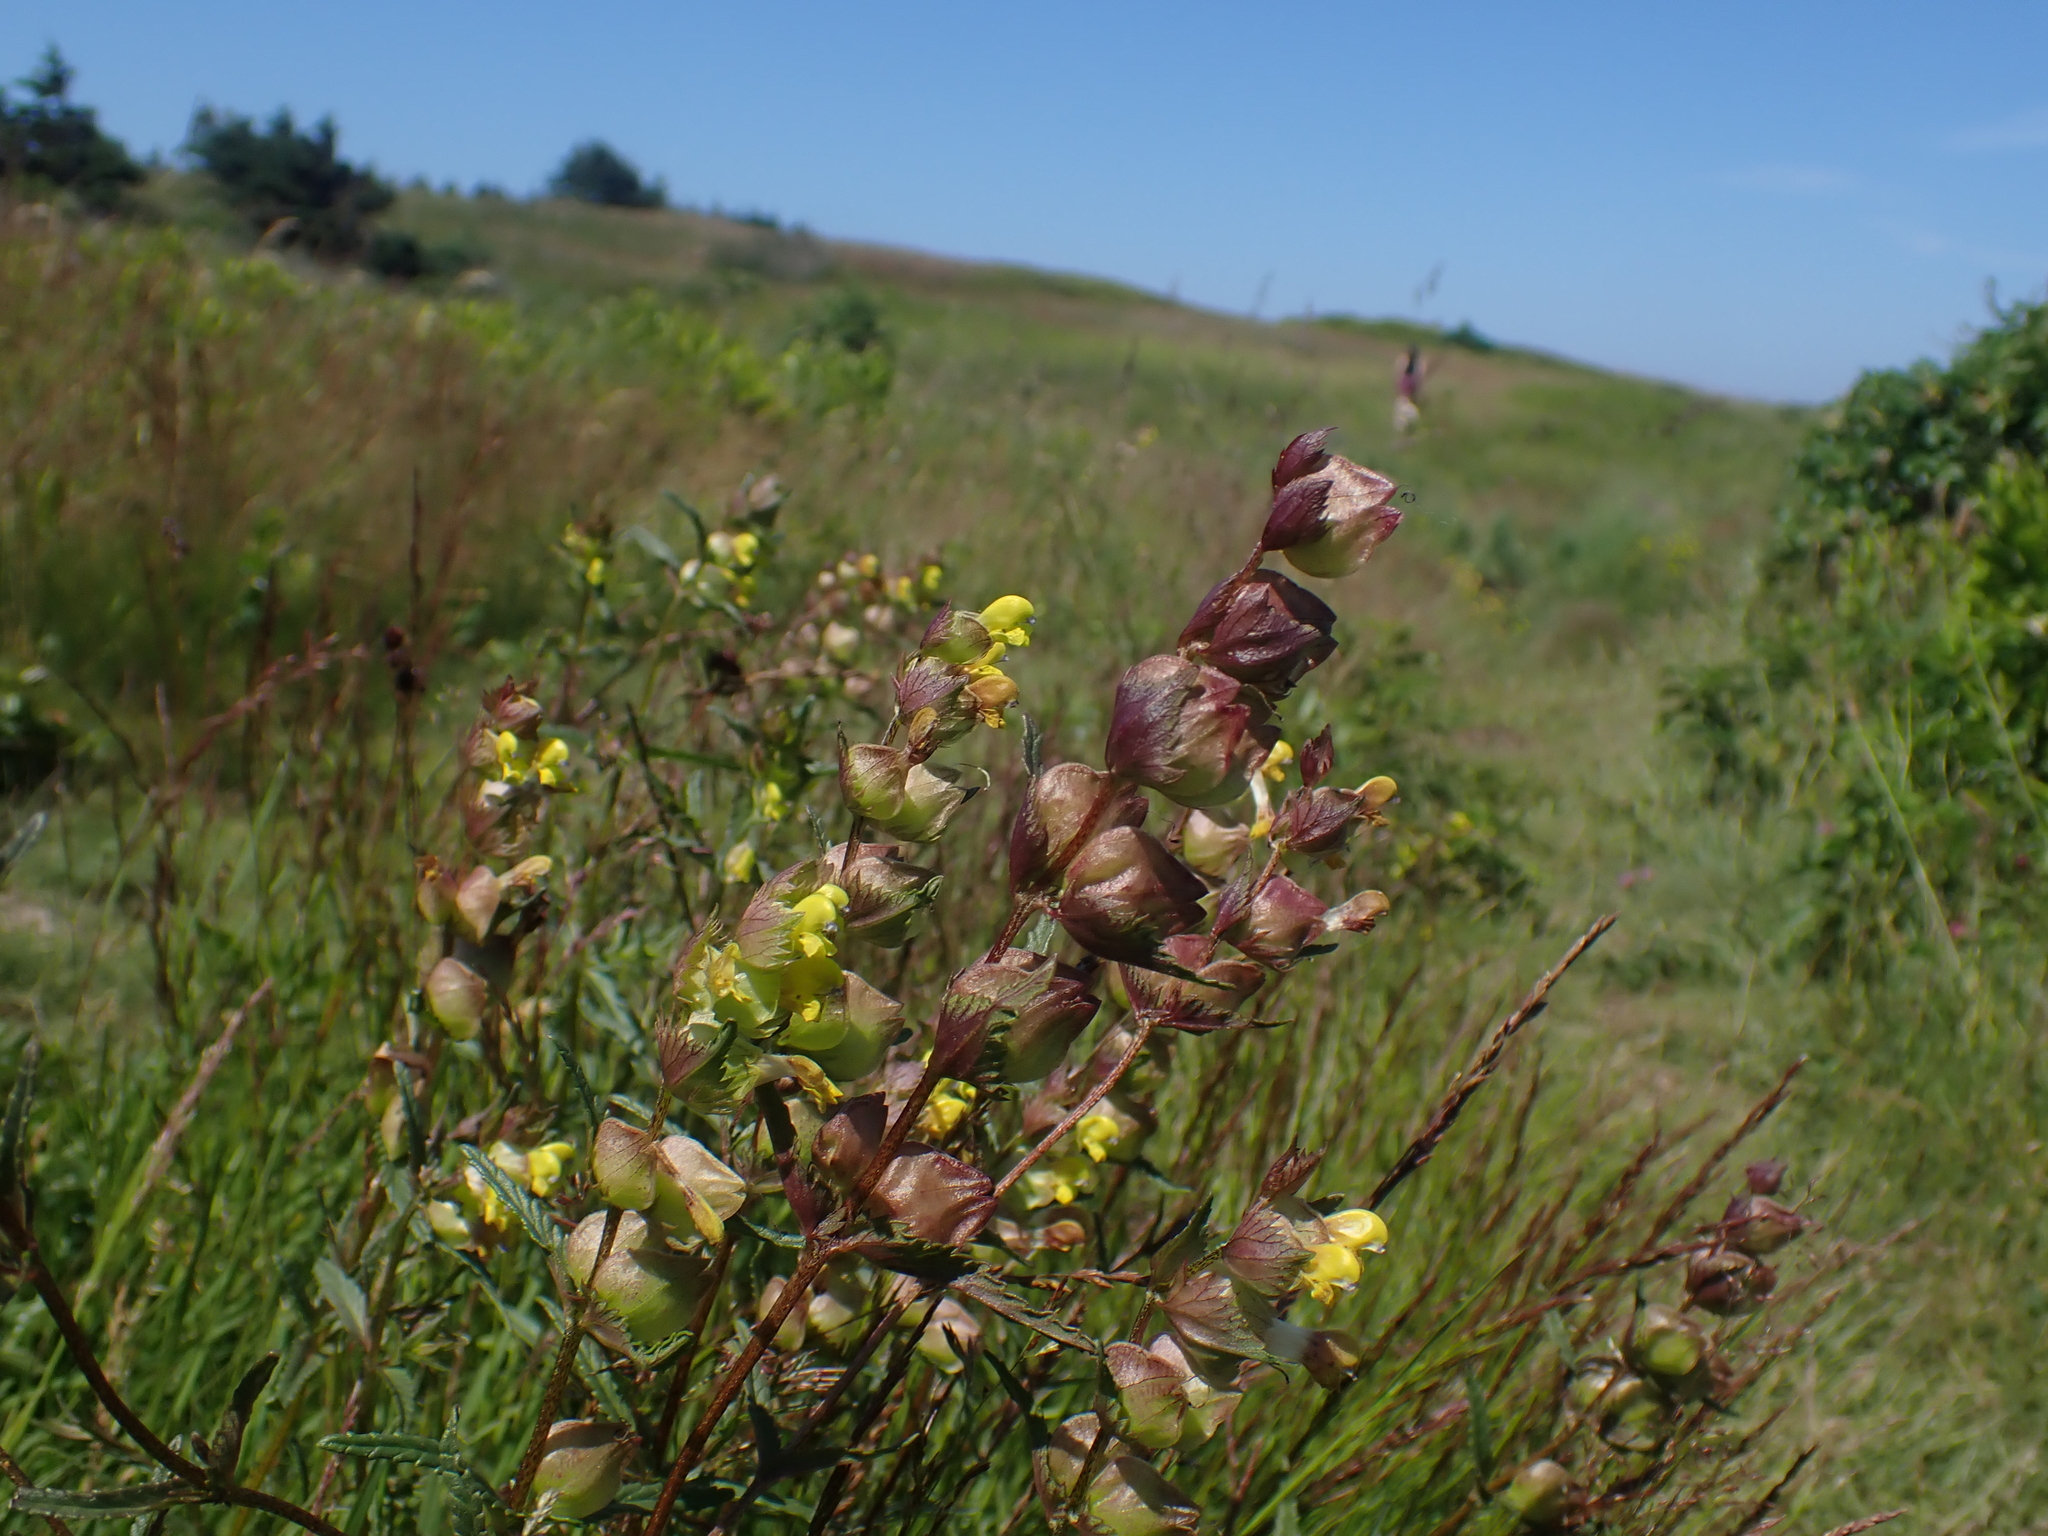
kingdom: Plantae
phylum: Tracheophyta
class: Magnoliopsida
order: Lamiales
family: Orobanchaceae
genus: Rhinanthus
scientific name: Rhinanthus minor
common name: Yellow-rattle
